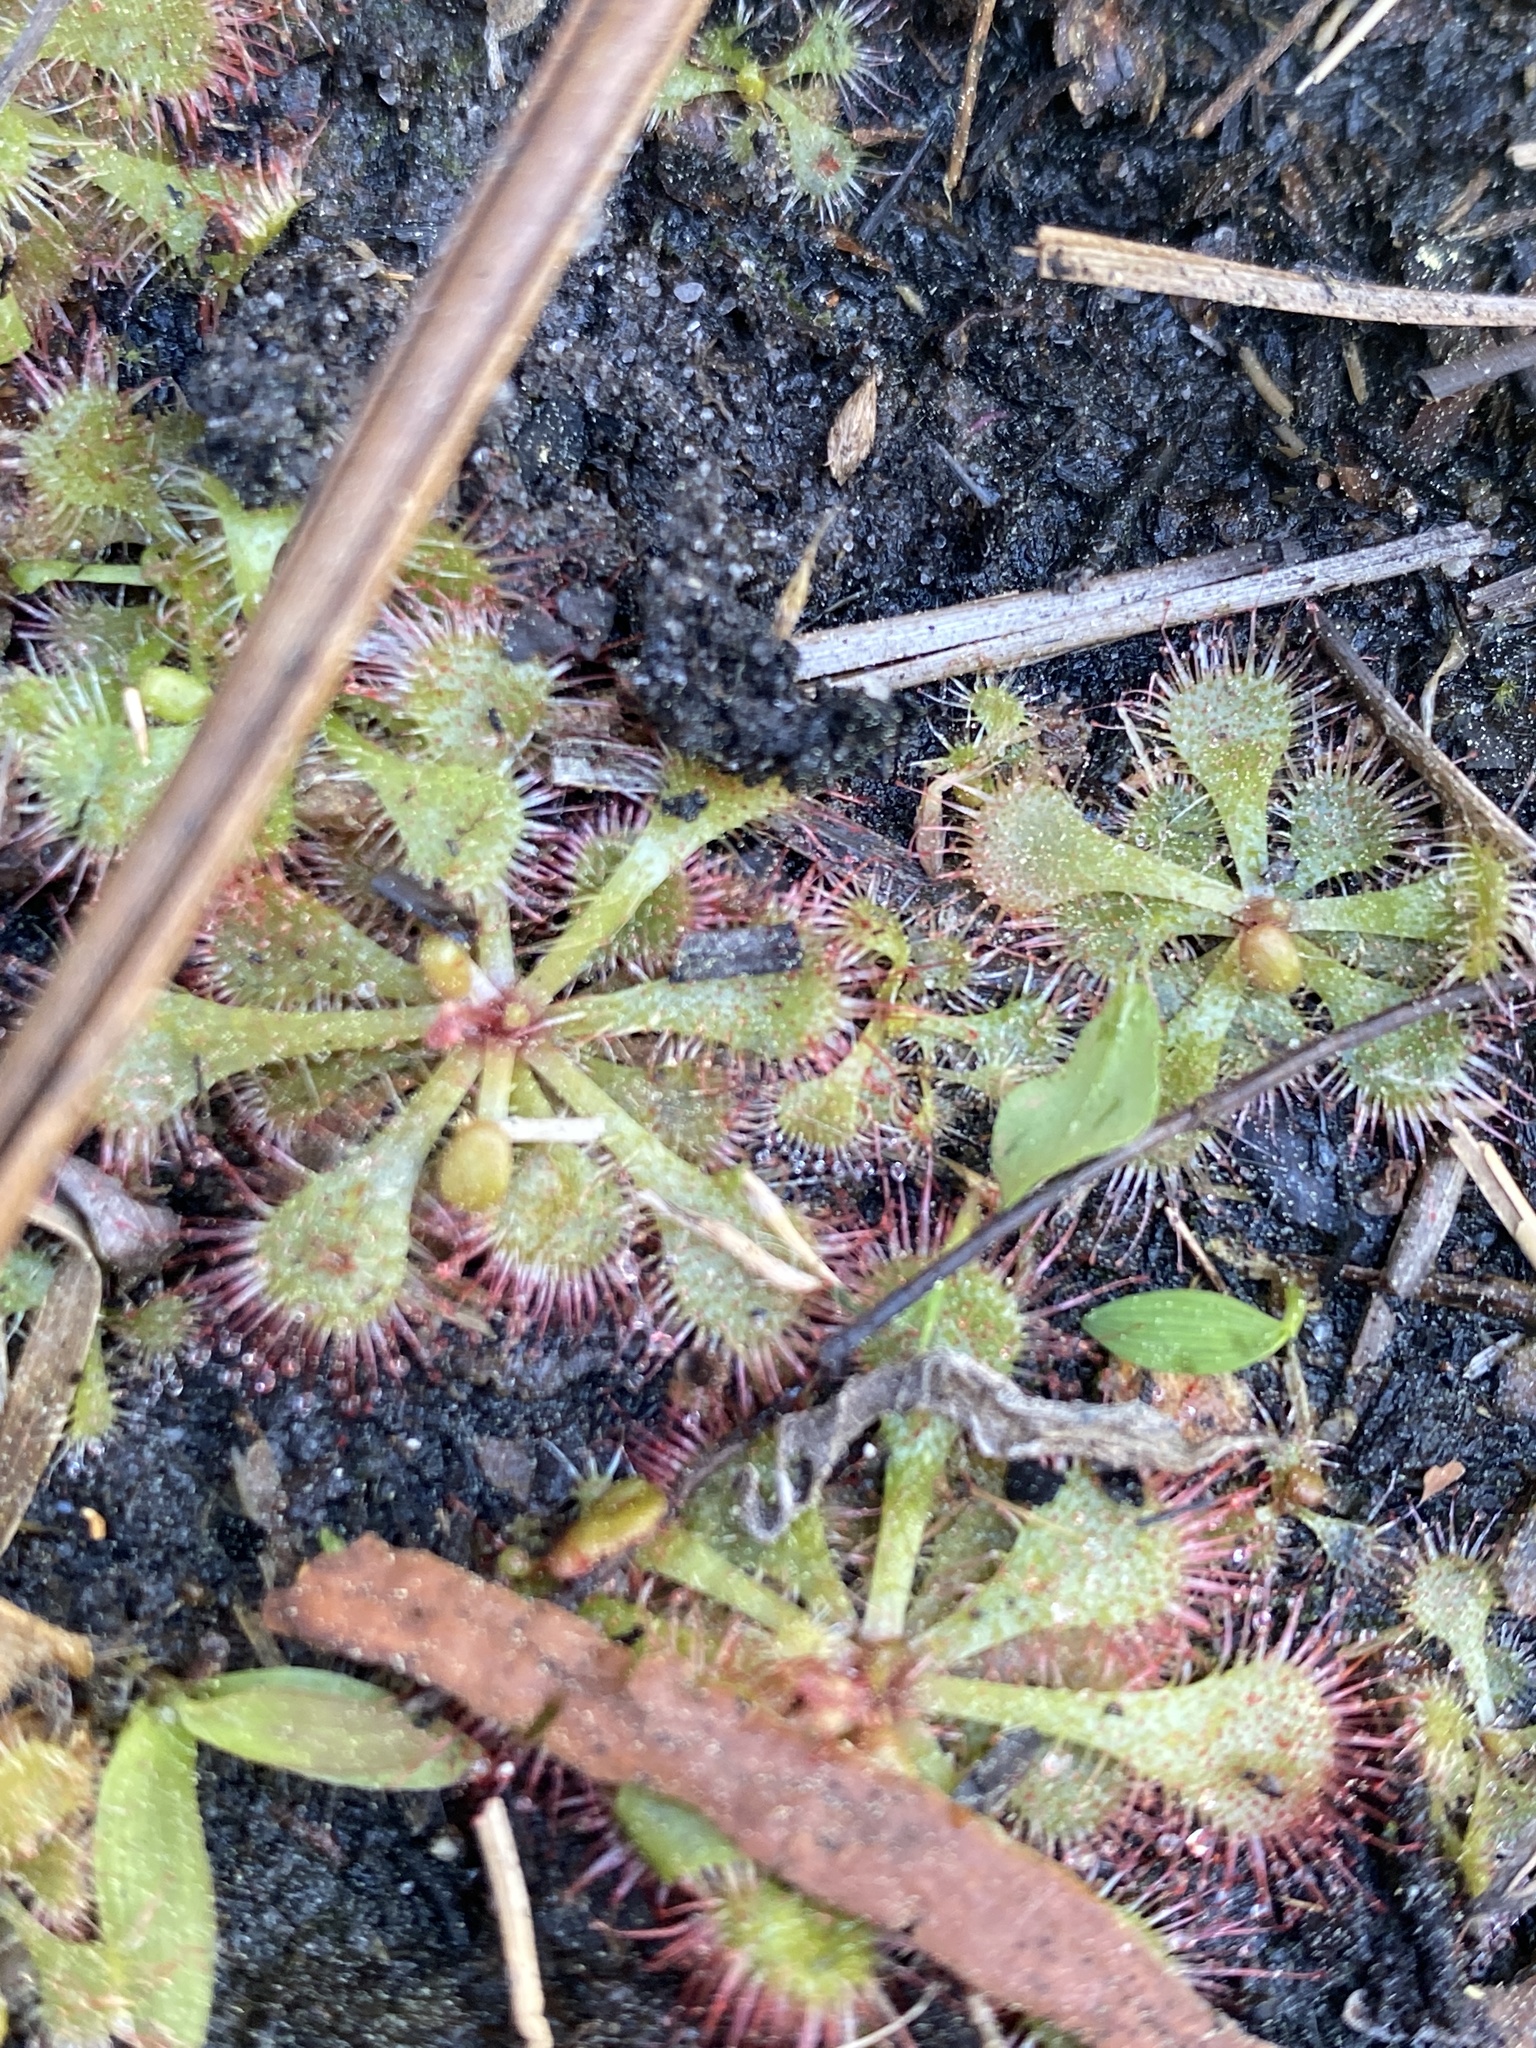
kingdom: Plantae
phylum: Tracheophyta
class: Magnoliopsida
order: Caryophyllales
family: Droseraceae
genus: Drosera
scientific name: Drosera brevifolia
